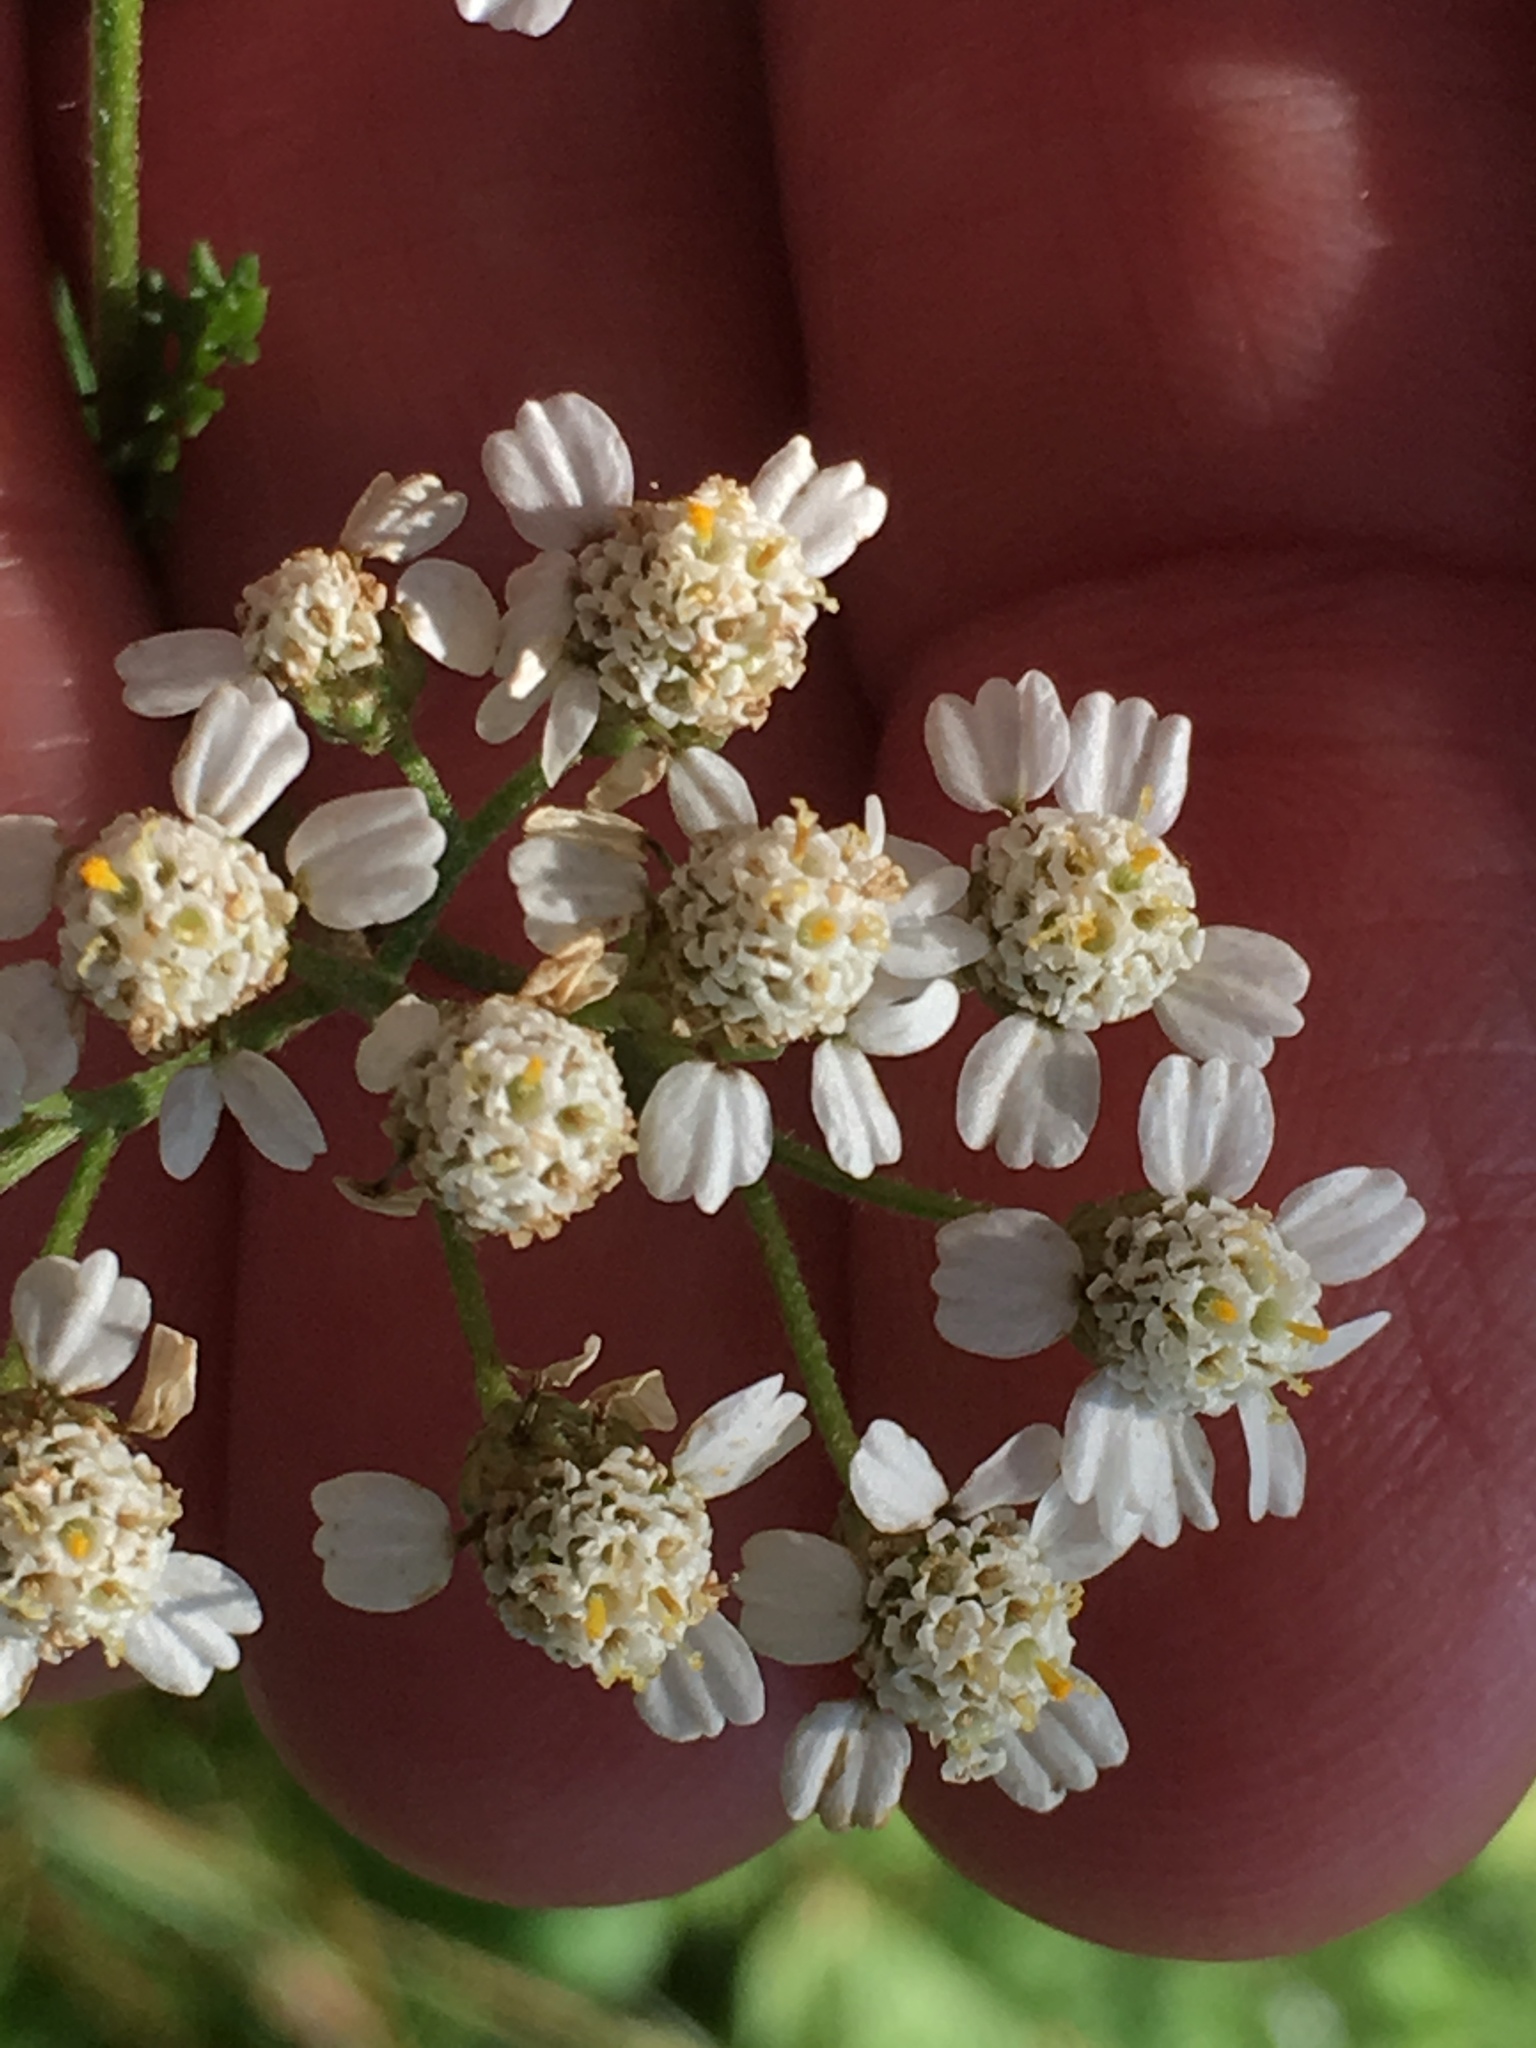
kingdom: Plantae
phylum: Tracheophyta
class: Magnoliopsida
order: Asterales
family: Asteraceae
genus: Achillea
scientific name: Achillea millefolium
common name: Yarrow
